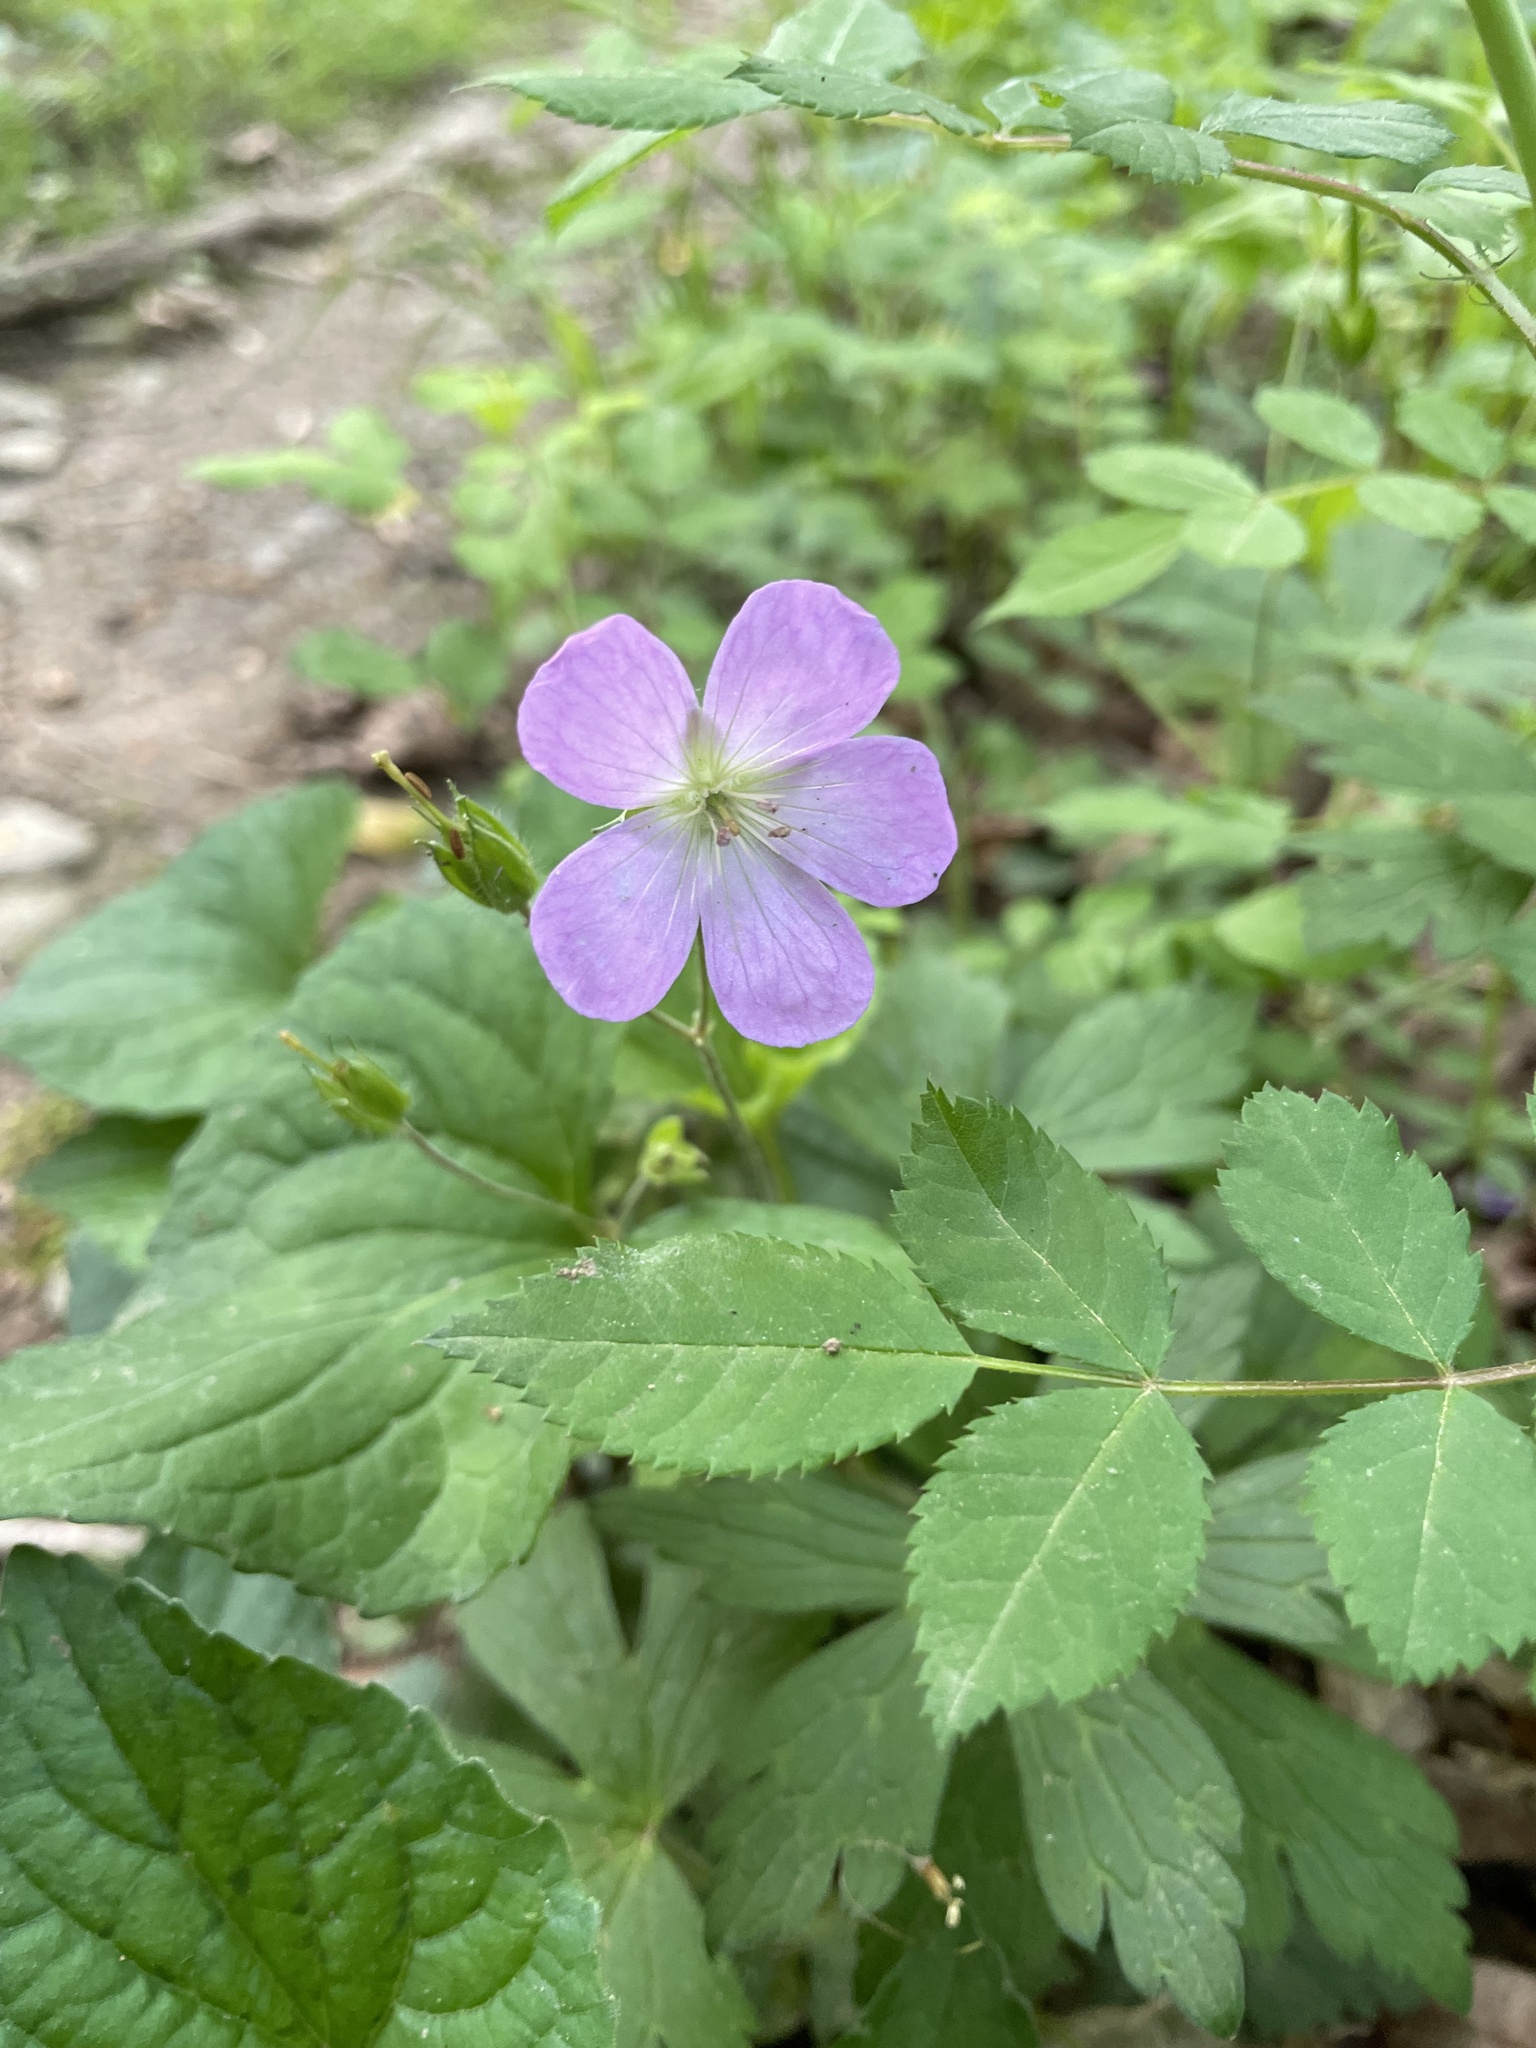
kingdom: Plantae
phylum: Tracheophyta
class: Magnoliopsida
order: Geraniales
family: Geraniaceae
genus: Geranium
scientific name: Geranium maculatum
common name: Spotted geranium
